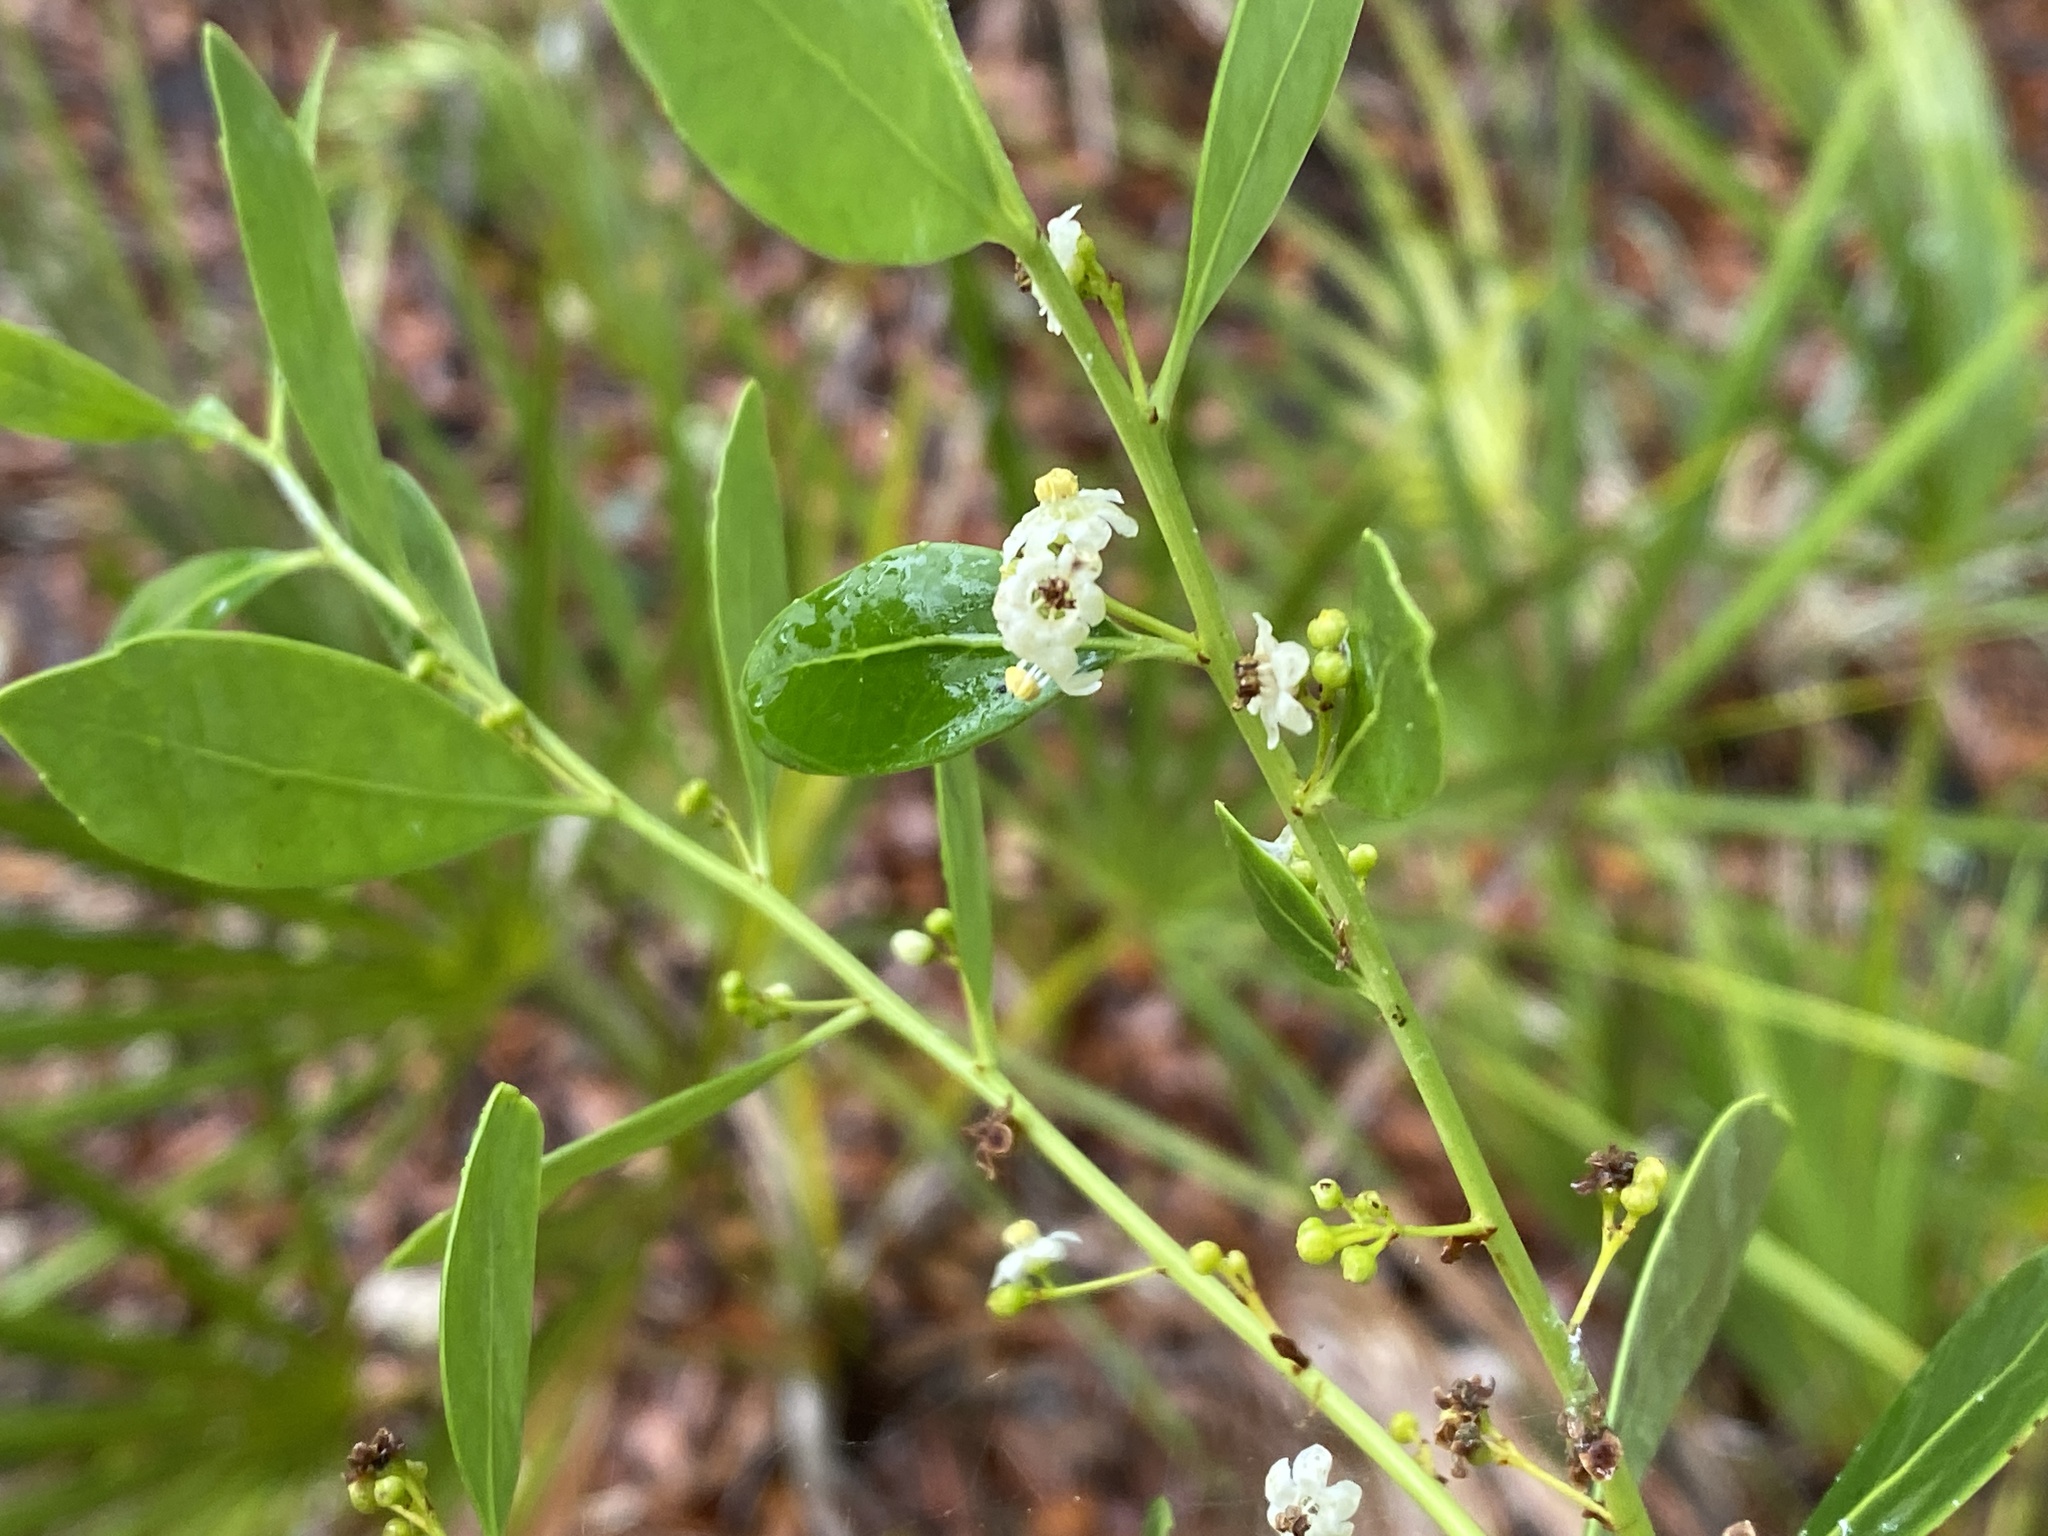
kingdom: Plantae
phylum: Tracheophyta
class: Magnoliopsida
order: Aquifoliales
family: Aquifoliaceae
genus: Ilex
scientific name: Ilex glabra
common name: Bitter gallberry
